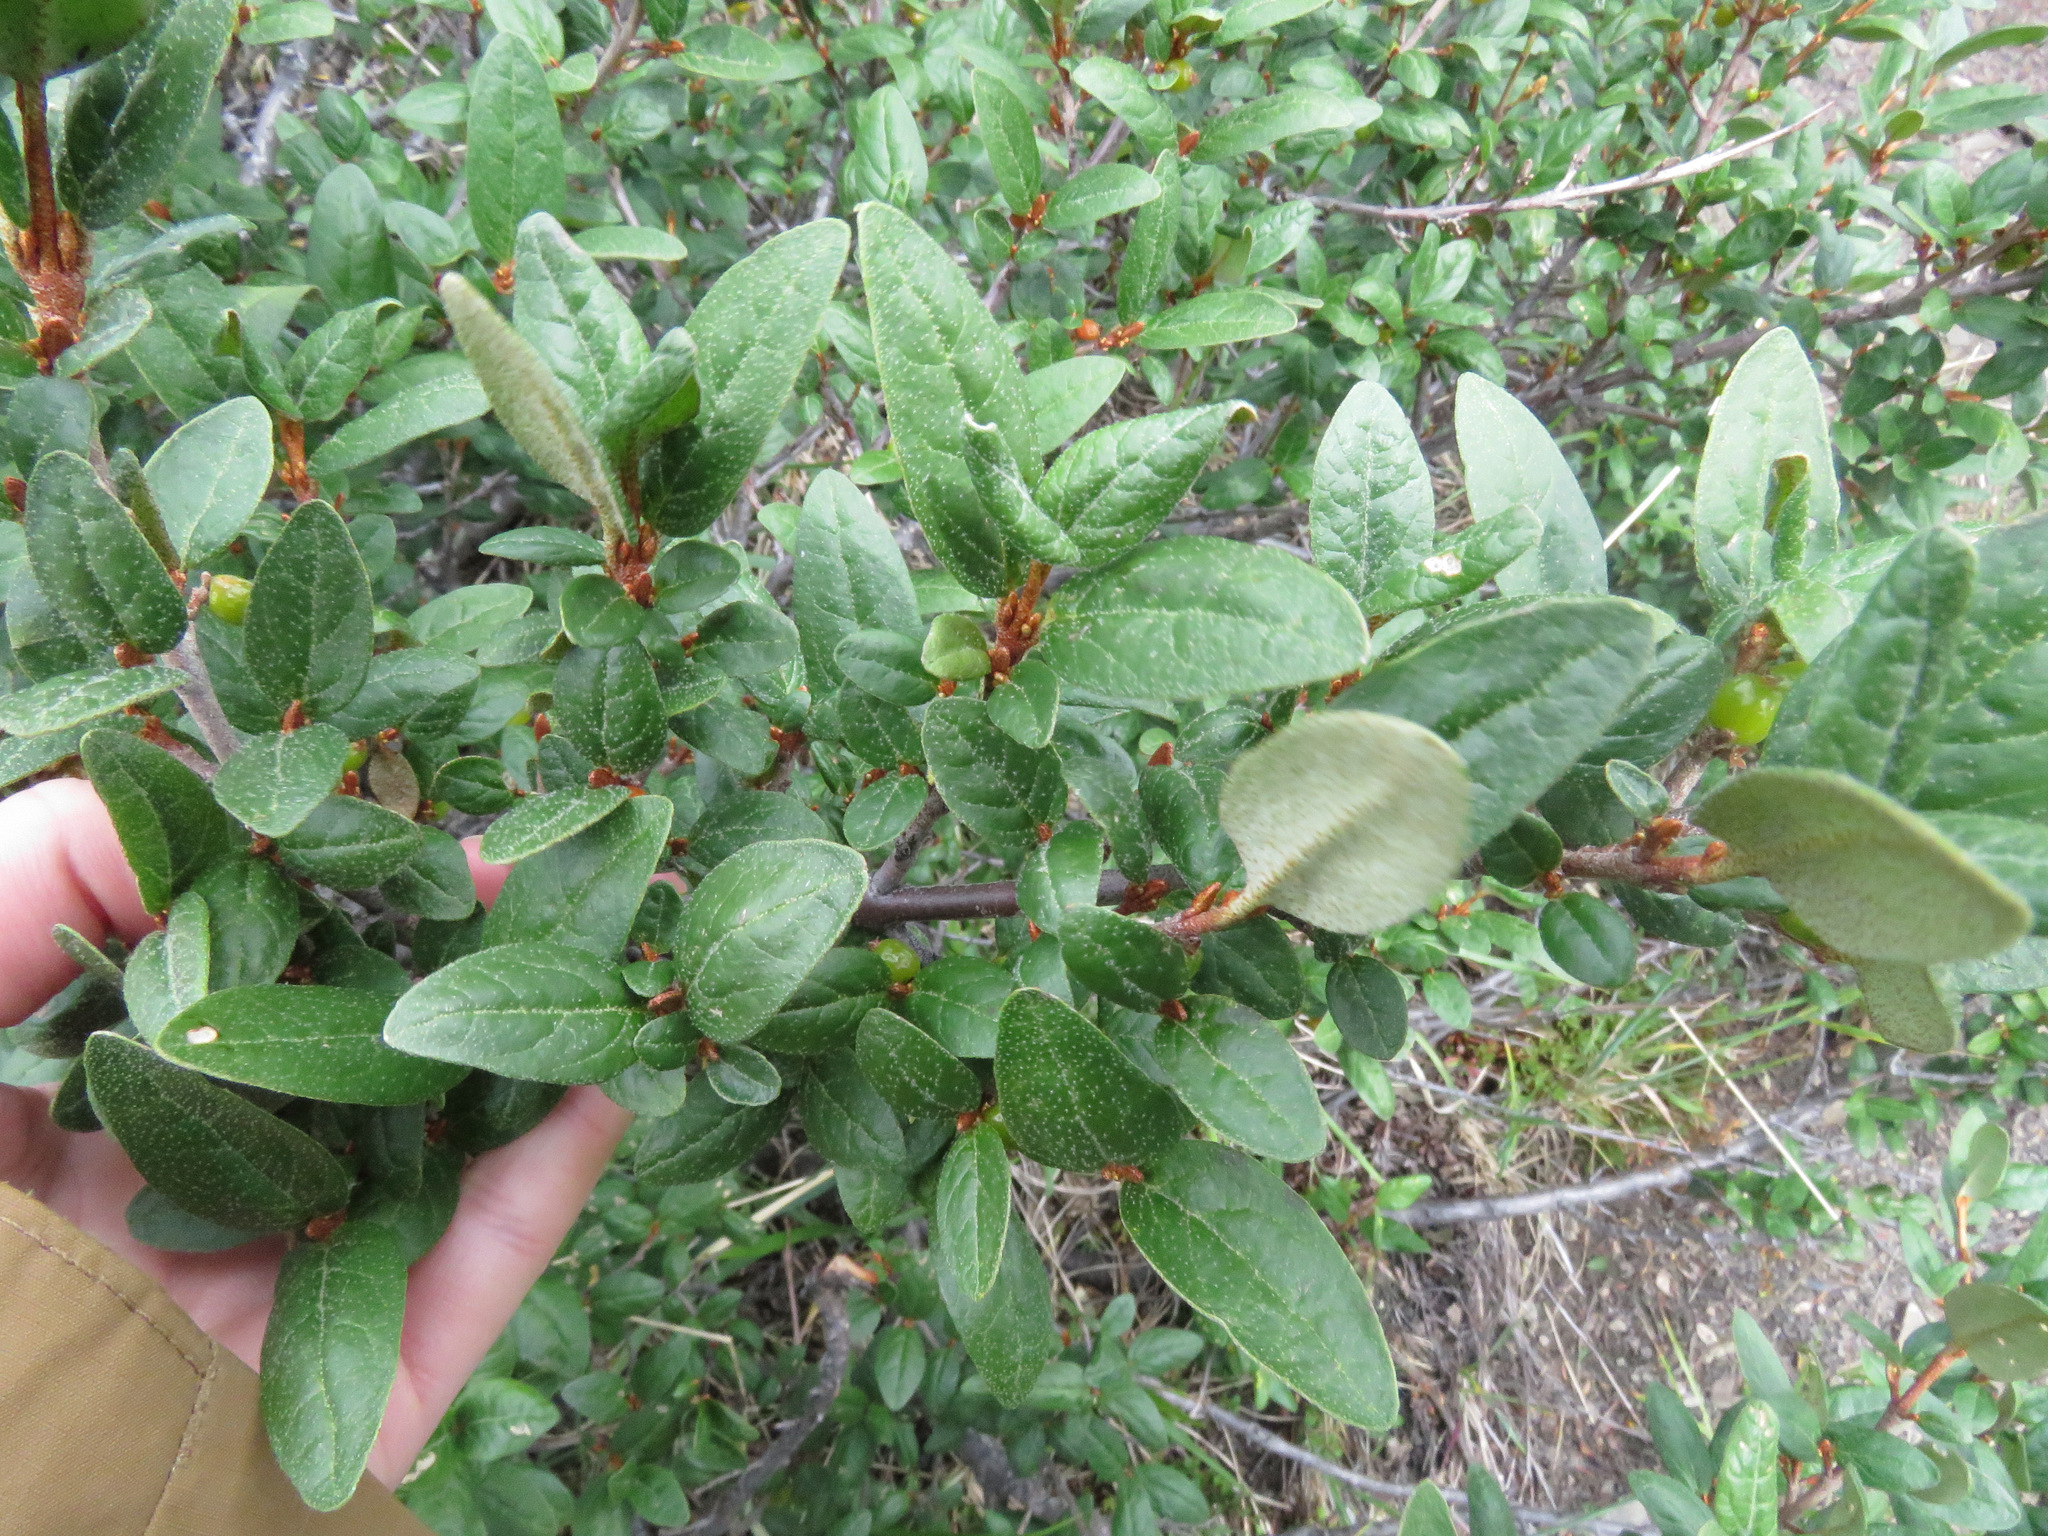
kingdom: Plantae
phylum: Tracheophyta
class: Magnoliopsida
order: Rosales
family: Elaeagnaceae
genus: Shepherdia
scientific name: Shepherdia canadensis
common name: Soapberry
